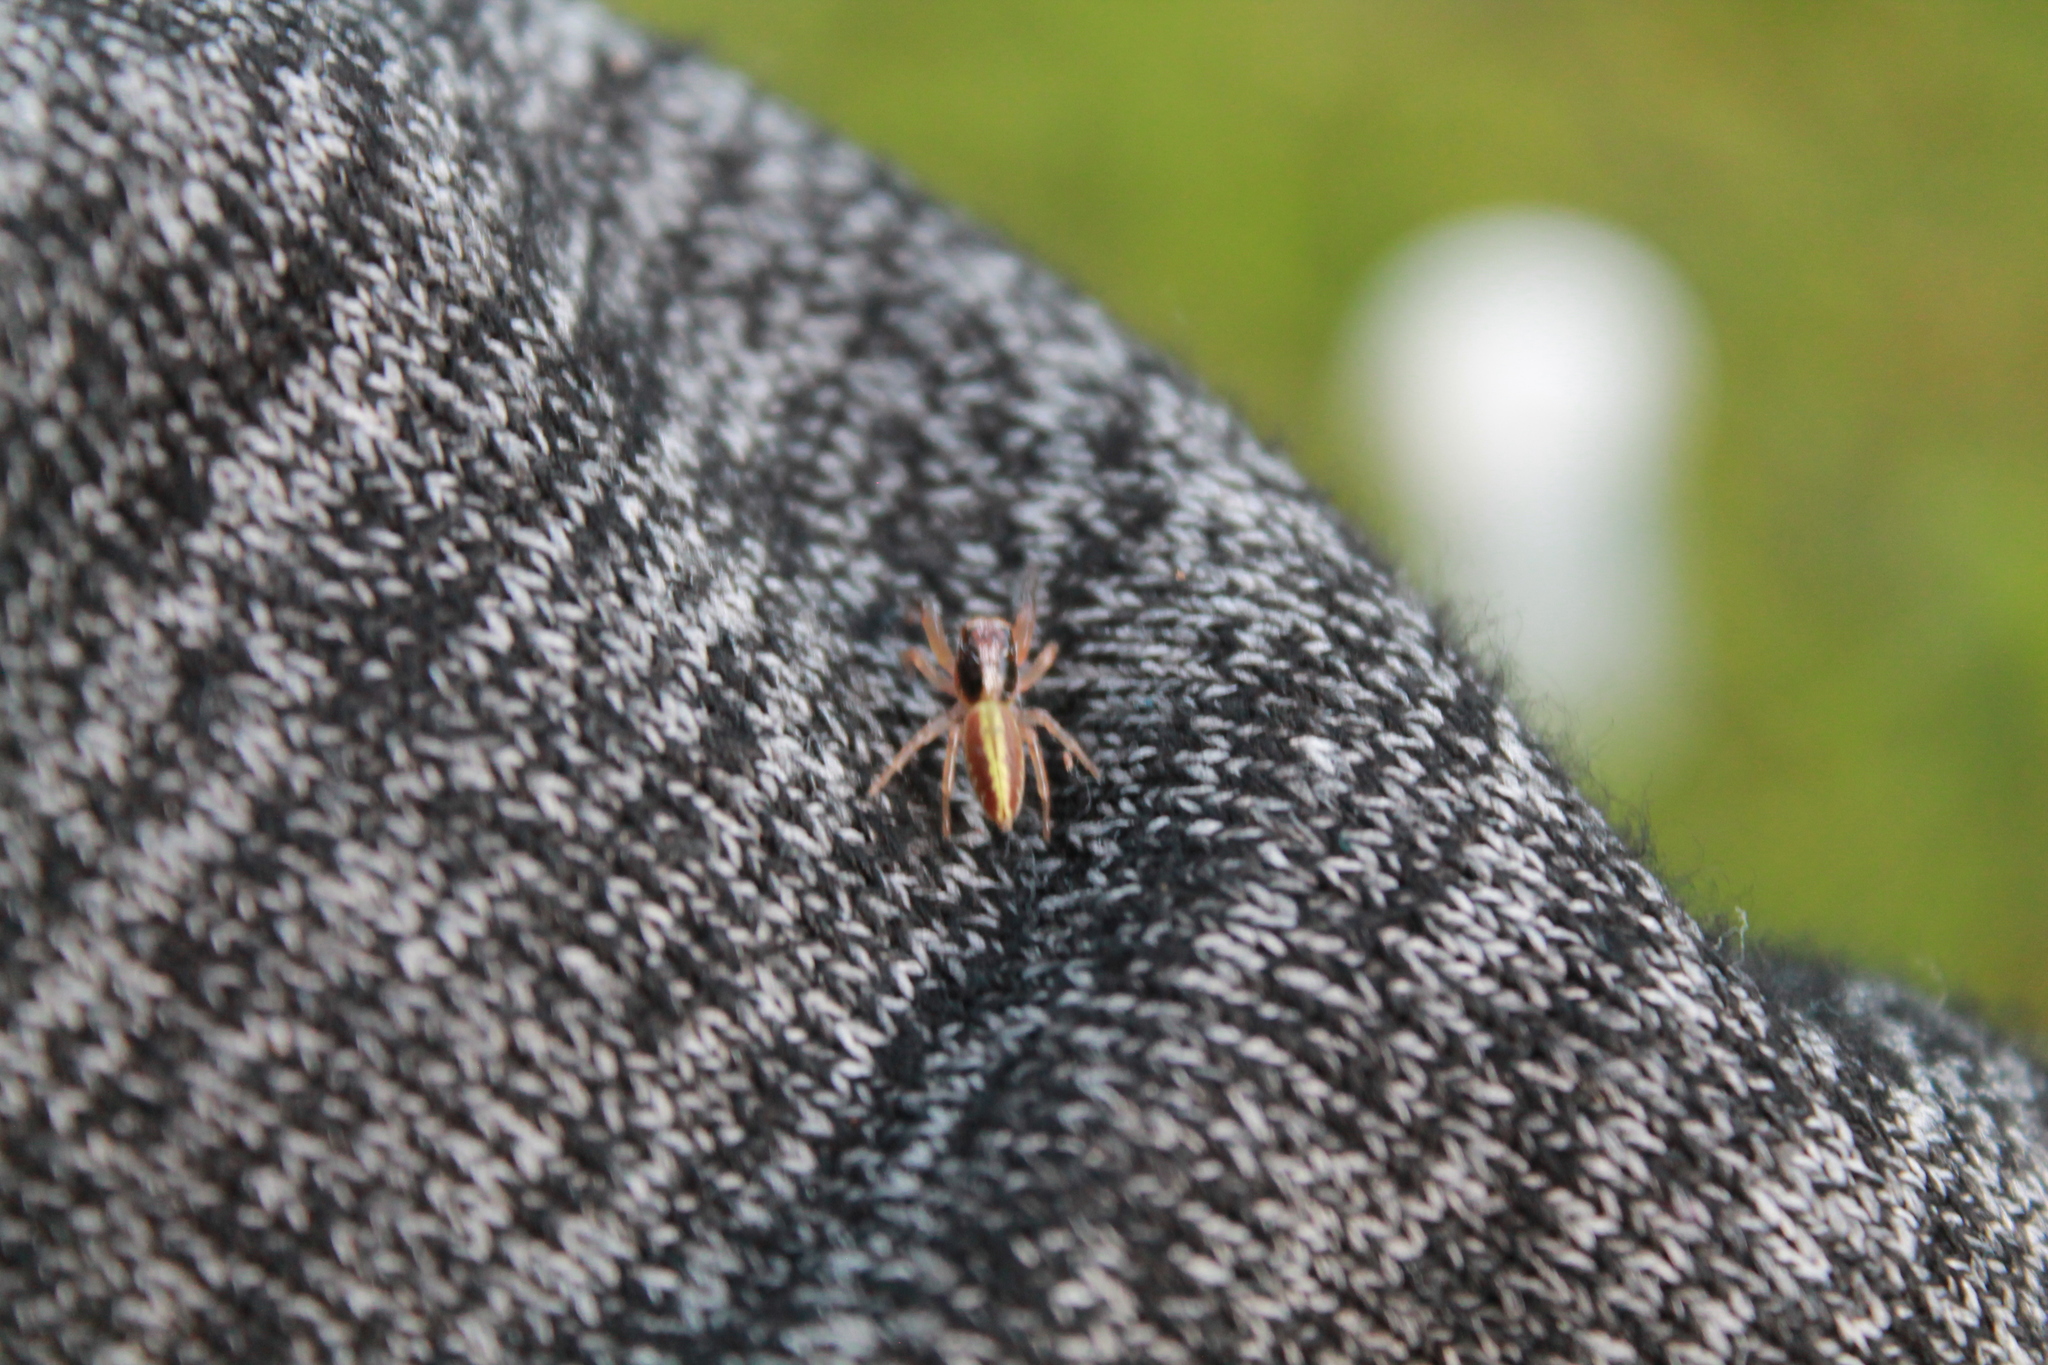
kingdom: Animalia
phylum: Arthropoda
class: Arachnida
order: Araneae
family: Salticidae
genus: Trite
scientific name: Trite planiceps
